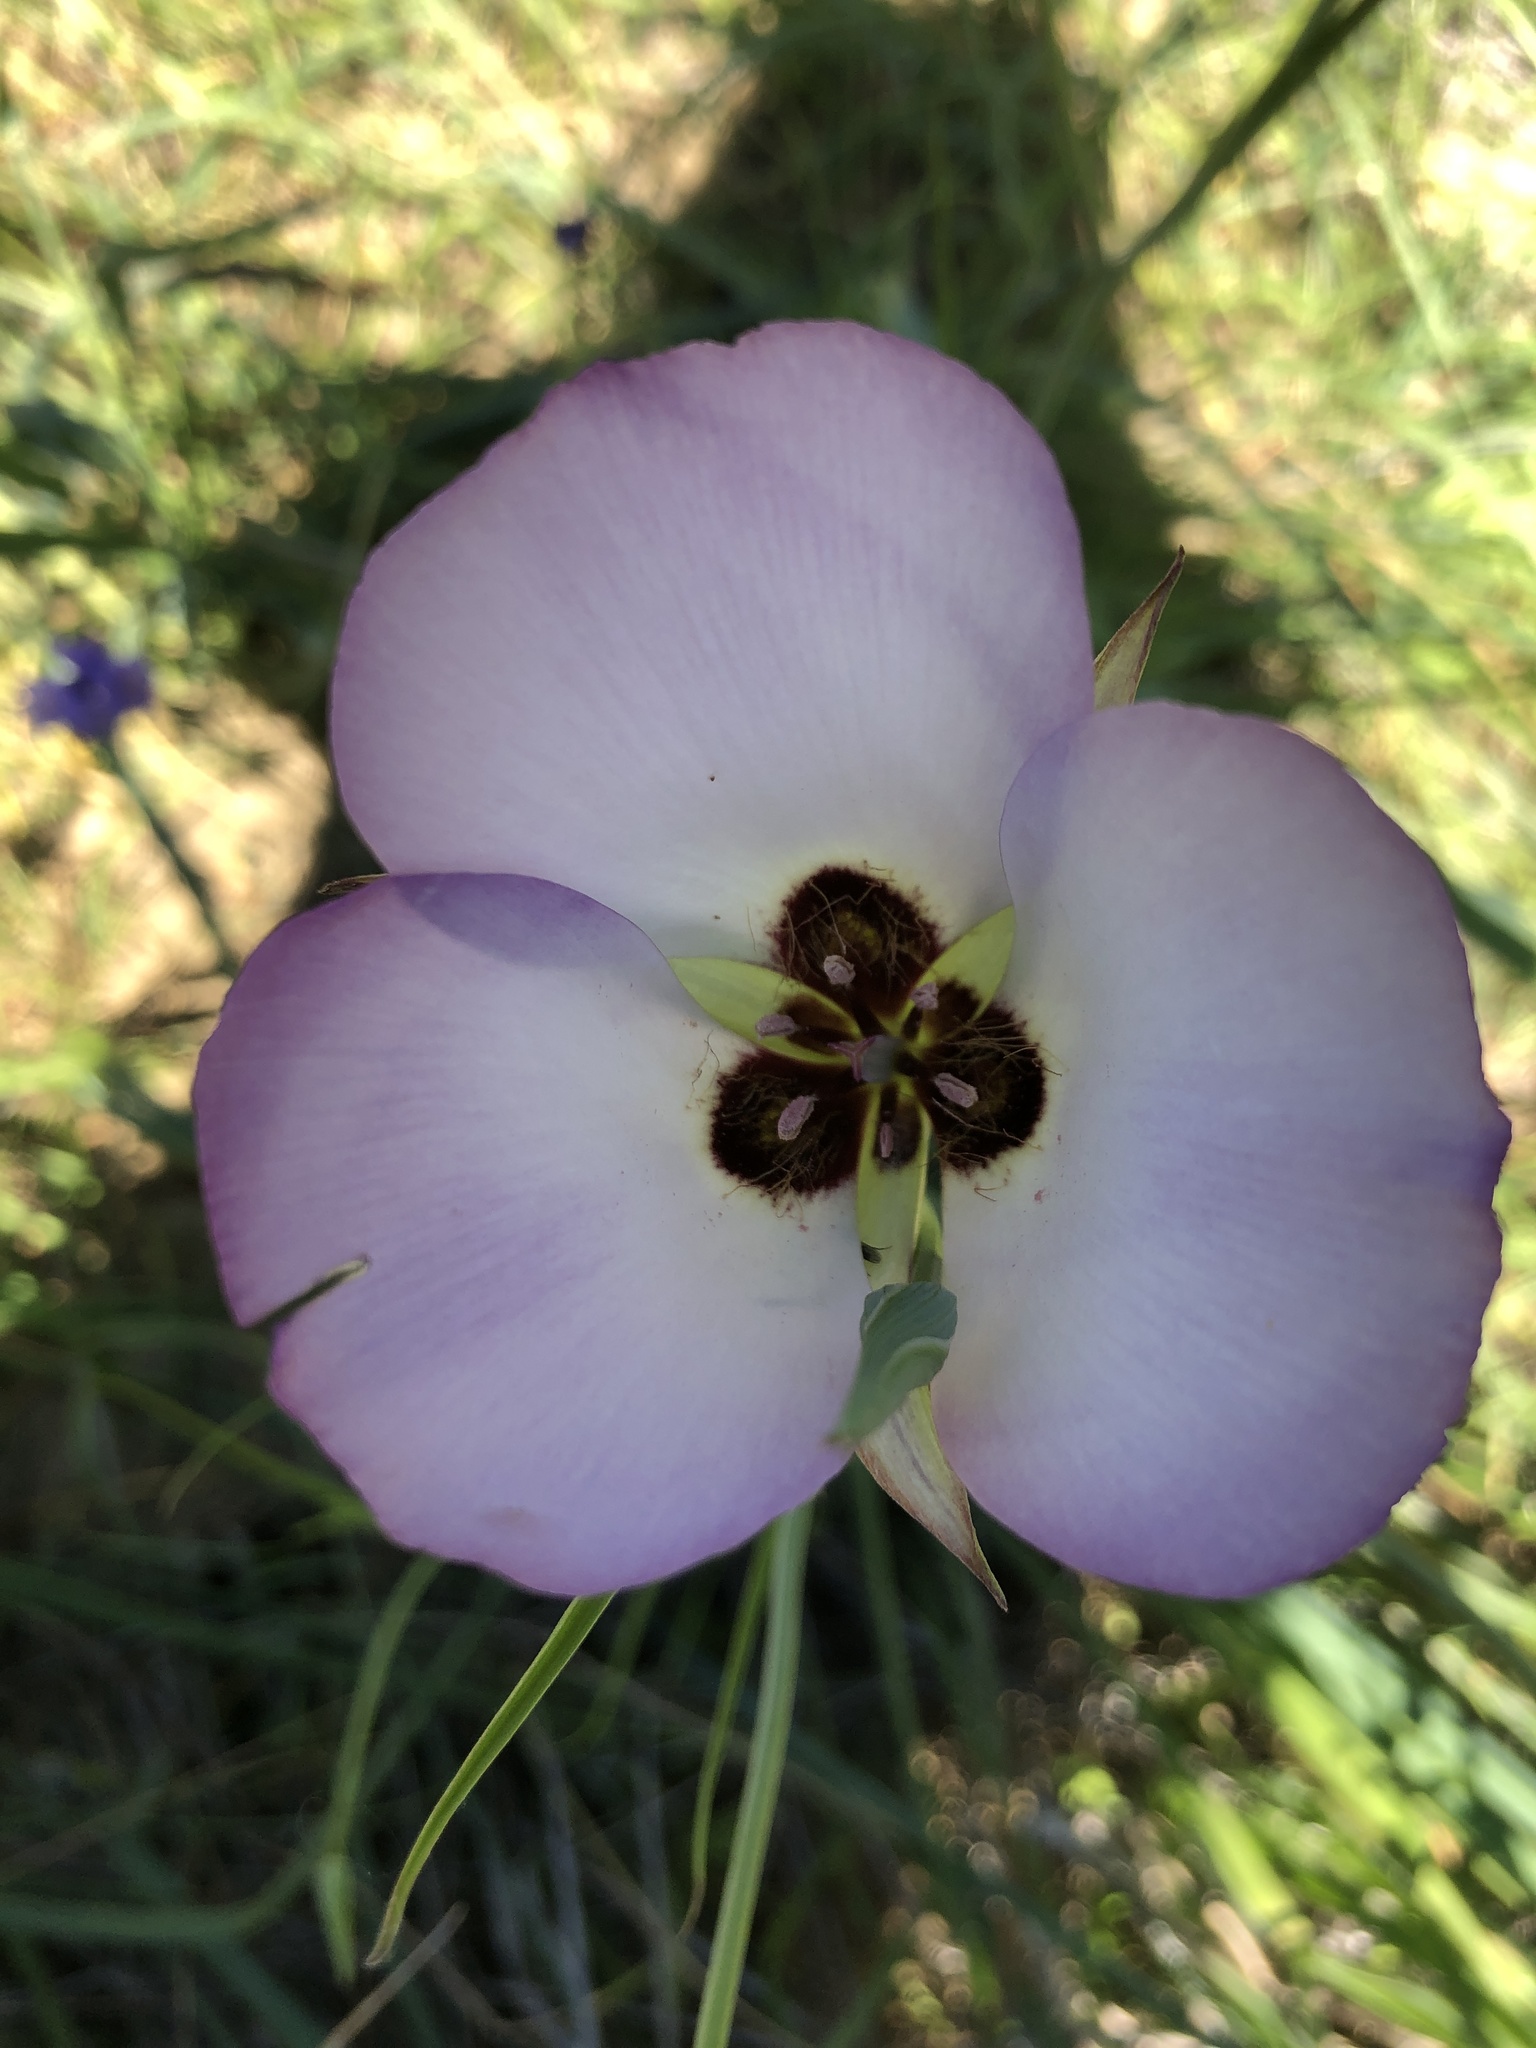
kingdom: Plantae
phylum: Tracheophyta
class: Liliopsida
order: Liliales
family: Liliaceae
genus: Calochortus
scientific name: Calochortus catalinae
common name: Catalina mariposa-lily
